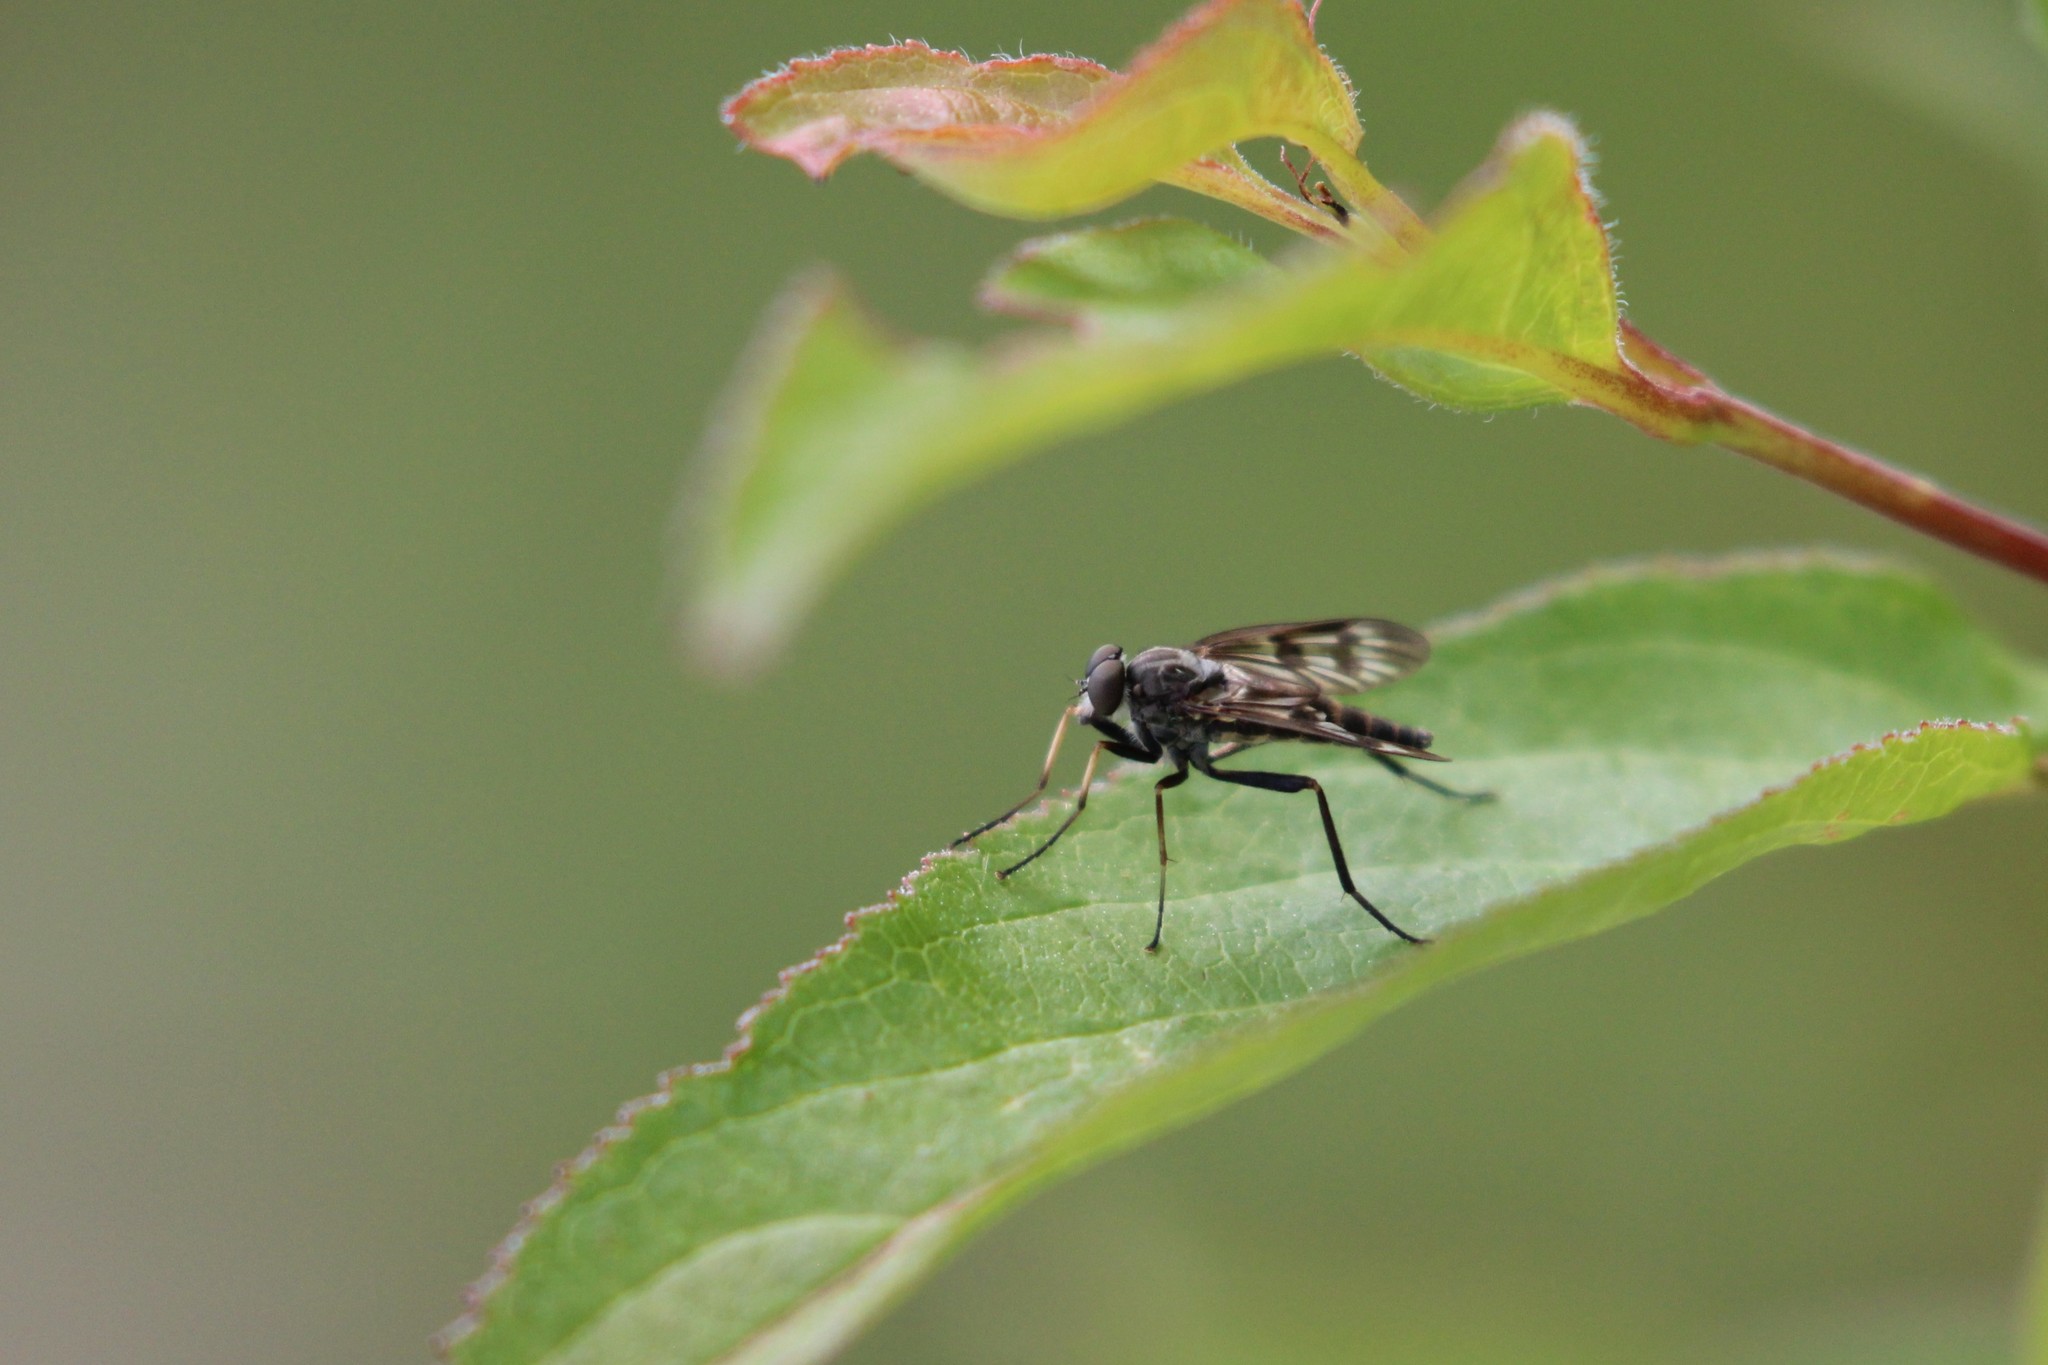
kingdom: Animalia
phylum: Arthropoda
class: Insecta
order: Diptera
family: Rhagionidae
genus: Rhagio
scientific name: Rhagio mystaceus
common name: Common snipe fly
